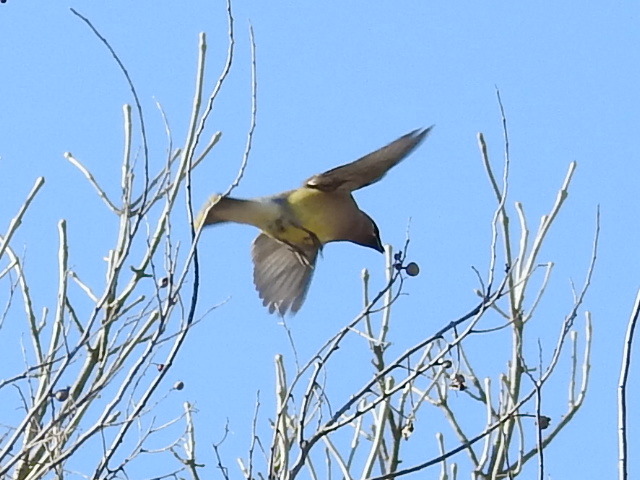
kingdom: Animalia
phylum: Chordata
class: Aves
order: Passeriformes
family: Bombycillidae
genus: Bombycilla
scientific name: Bombycilla cedrorum
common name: Cedar waxwing
